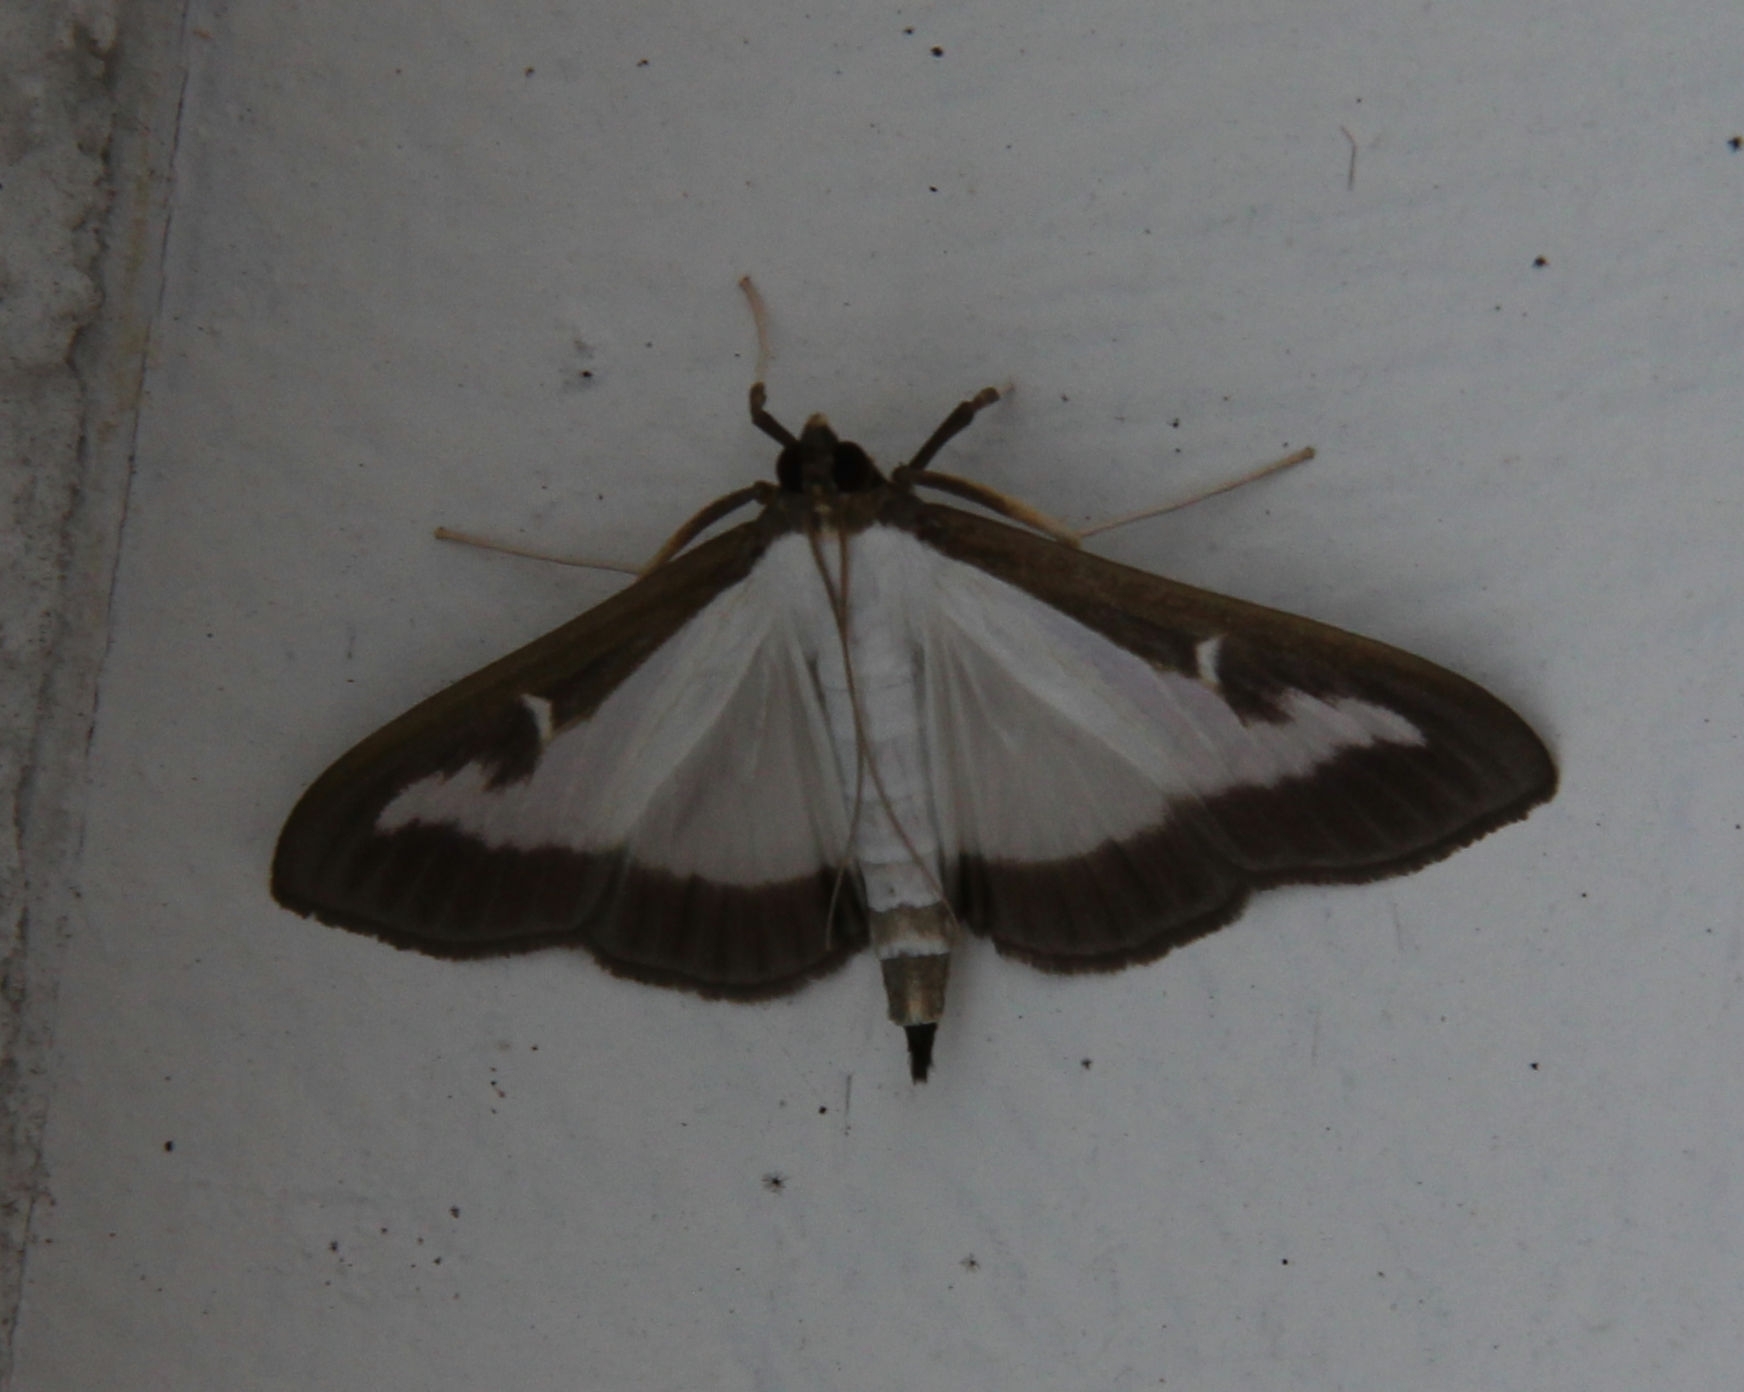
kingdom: Animalia
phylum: Arthropoda
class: Insecta
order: Lepidoptera
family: Crambidae
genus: Cydalima
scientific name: Cydalima perspectalis
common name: Box tree moth
